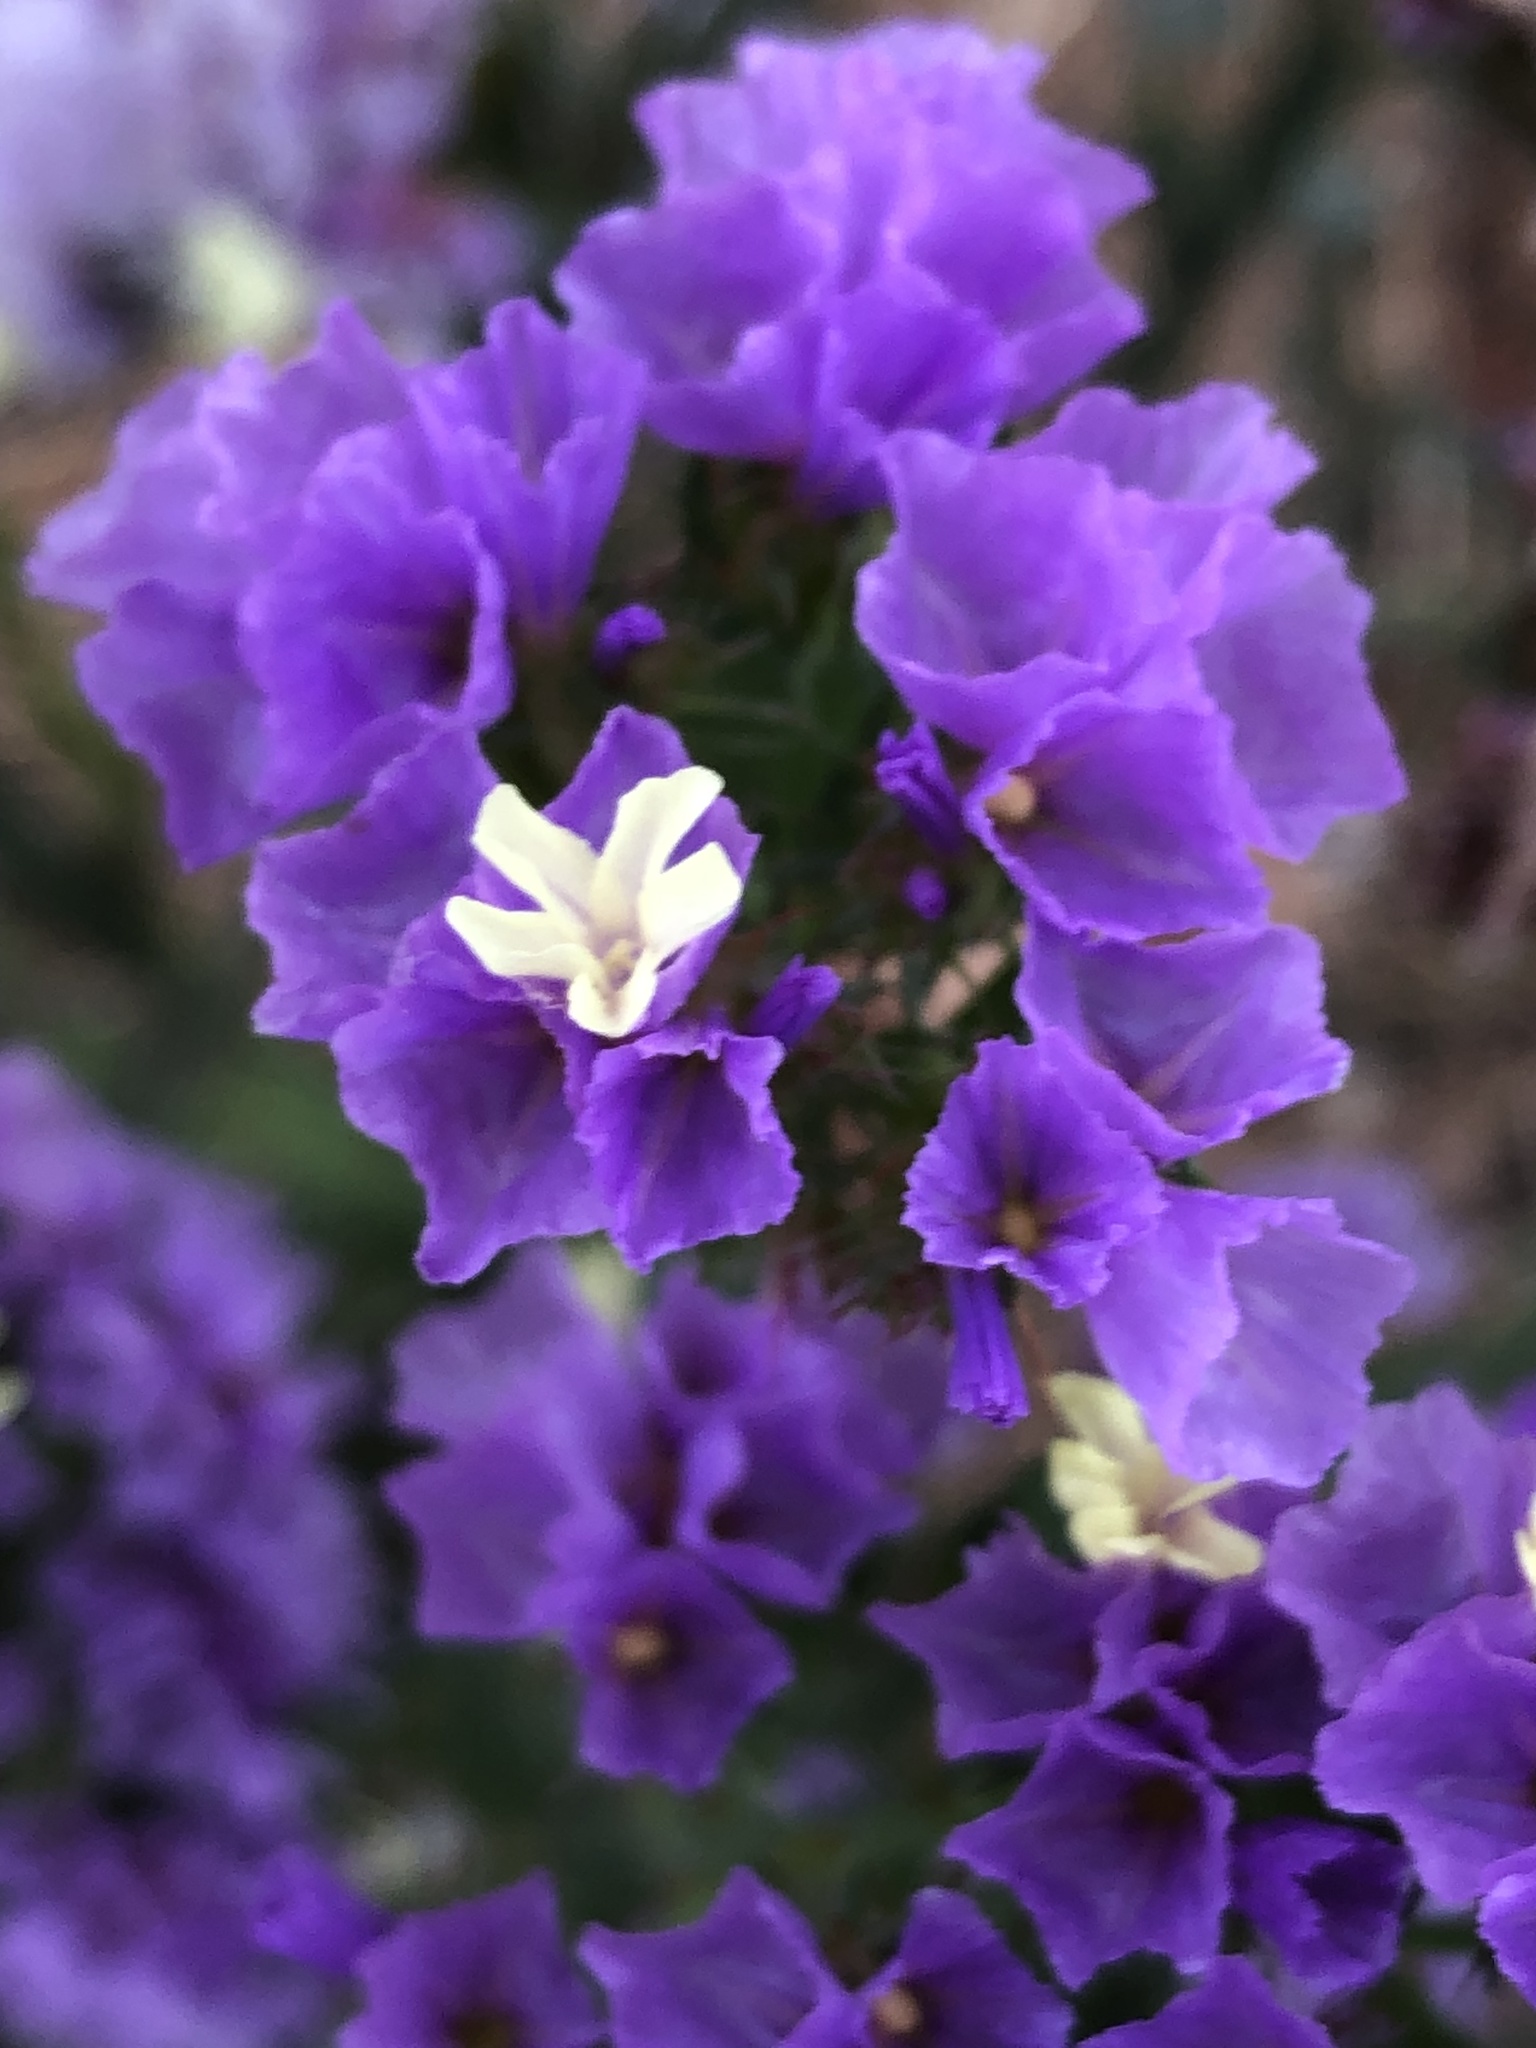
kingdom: Plantae
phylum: Tracheophyta
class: Magnoliopsida
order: Caryophyllales
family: Plumbaginaceae
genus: Limonium
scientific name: Limonium sinuatum
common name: Statice
